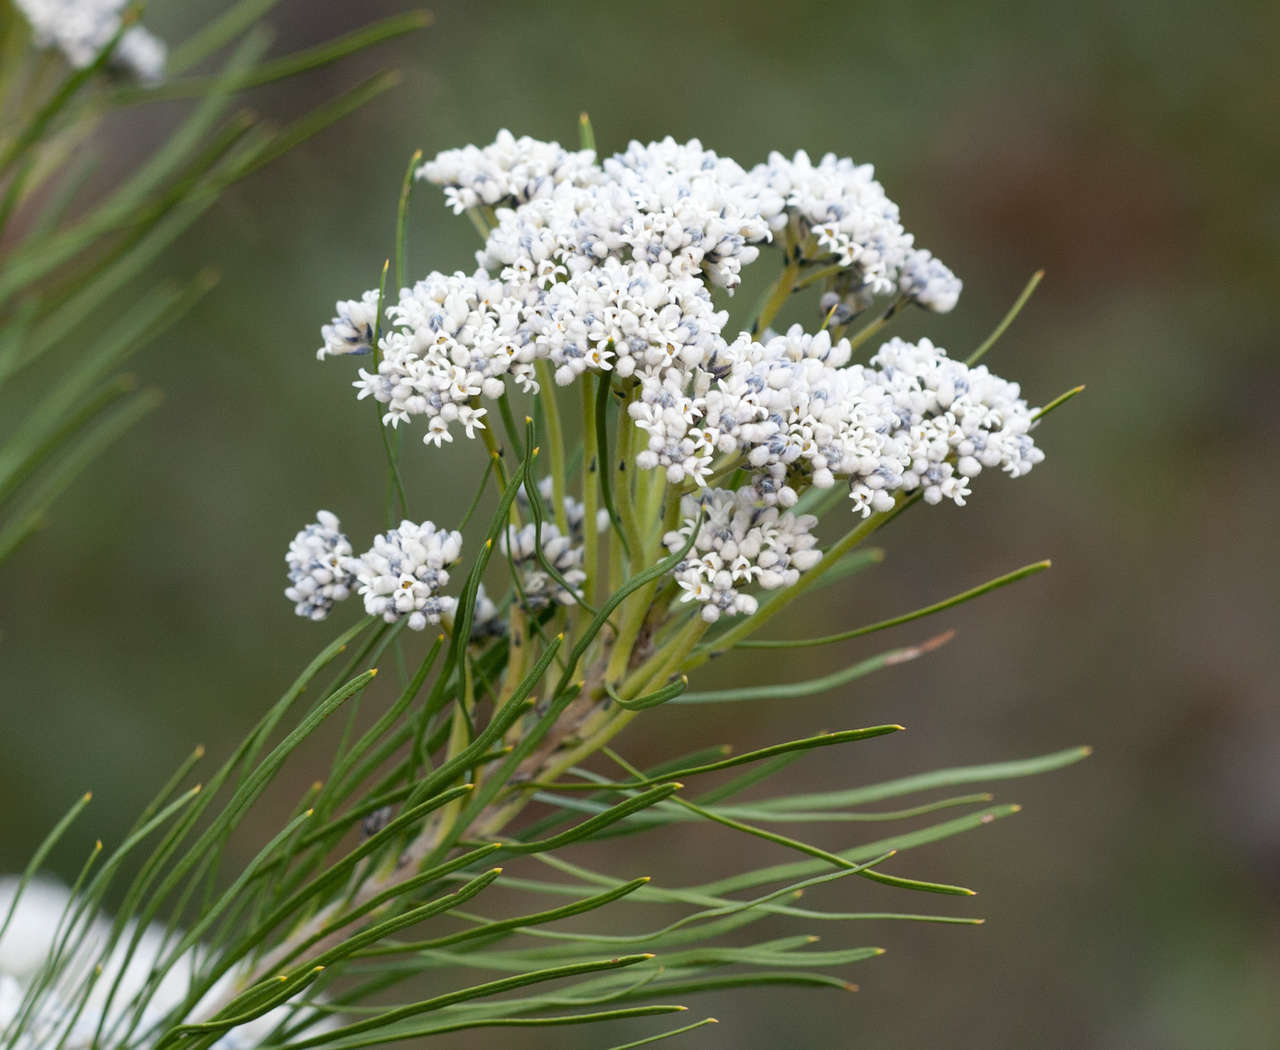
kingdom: Plantae
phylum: Tracheophyta
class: Magnoliopsida
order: Proteales
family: Proteaceae
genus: Conospermum
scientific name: Conospermum mitchellii
